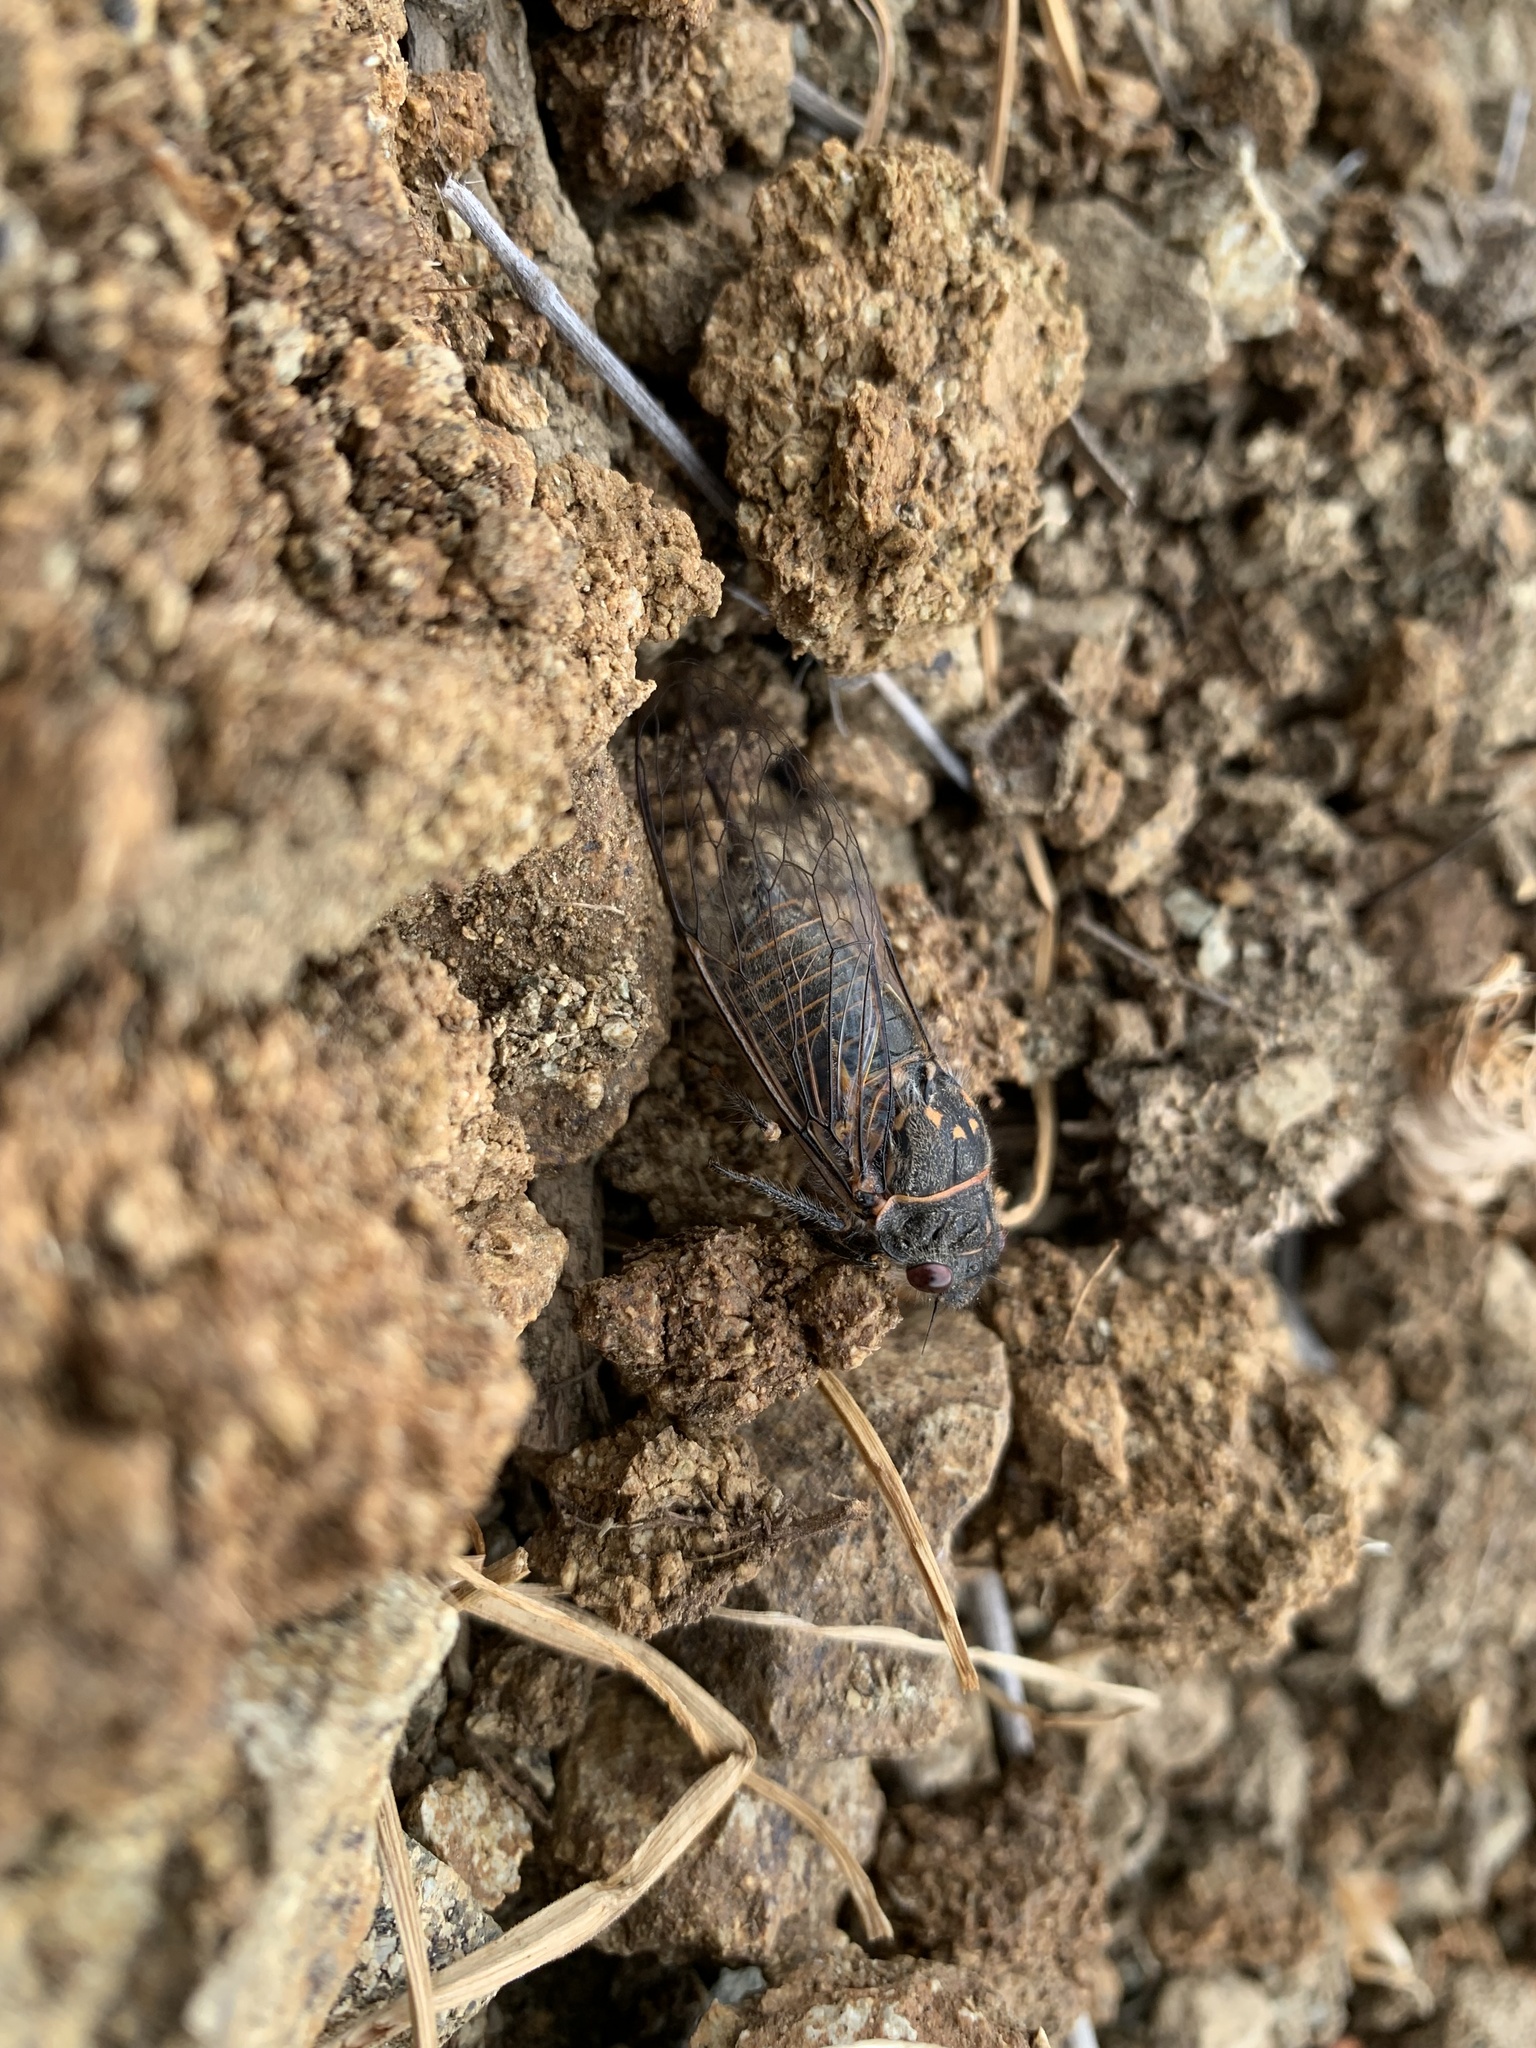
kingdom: Animalia
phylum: Arthropoda
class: Insecta
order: Hemiptera
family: Cicadidae
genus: Tibicinoides
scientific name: Tibicinoides
